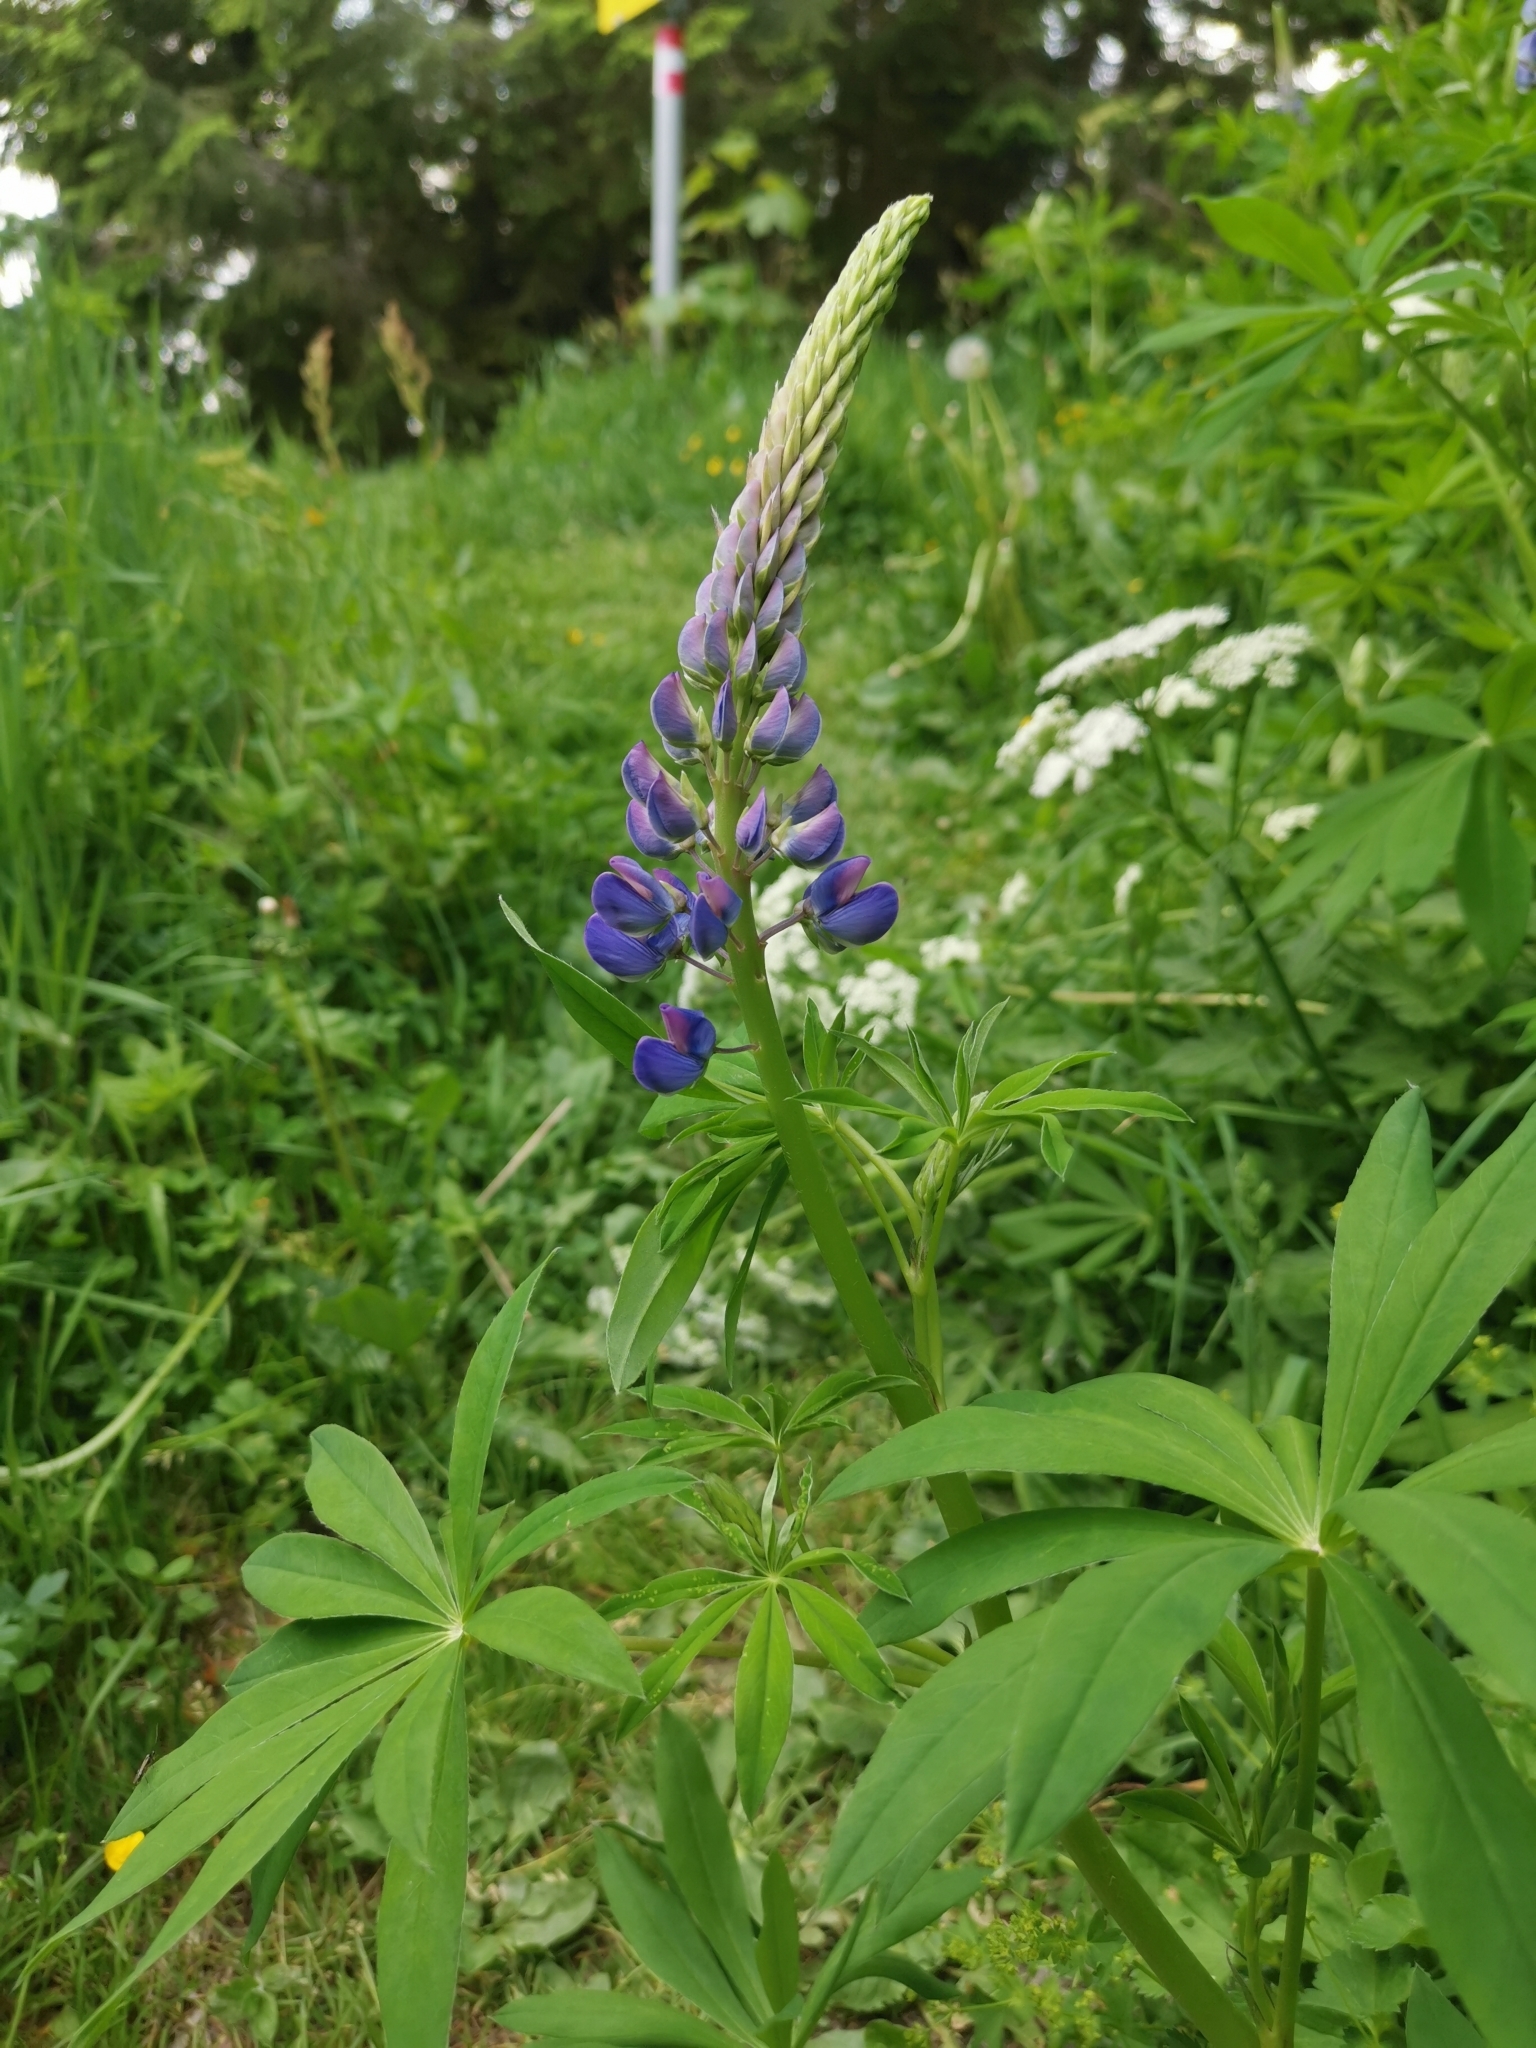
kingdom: Plantae
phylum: Tracheophyta
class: Magnoliopsida
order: Fabales
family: Fabaceae
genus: Lupinus
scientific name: Lupinus polyphyllus
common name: Garden lupin
